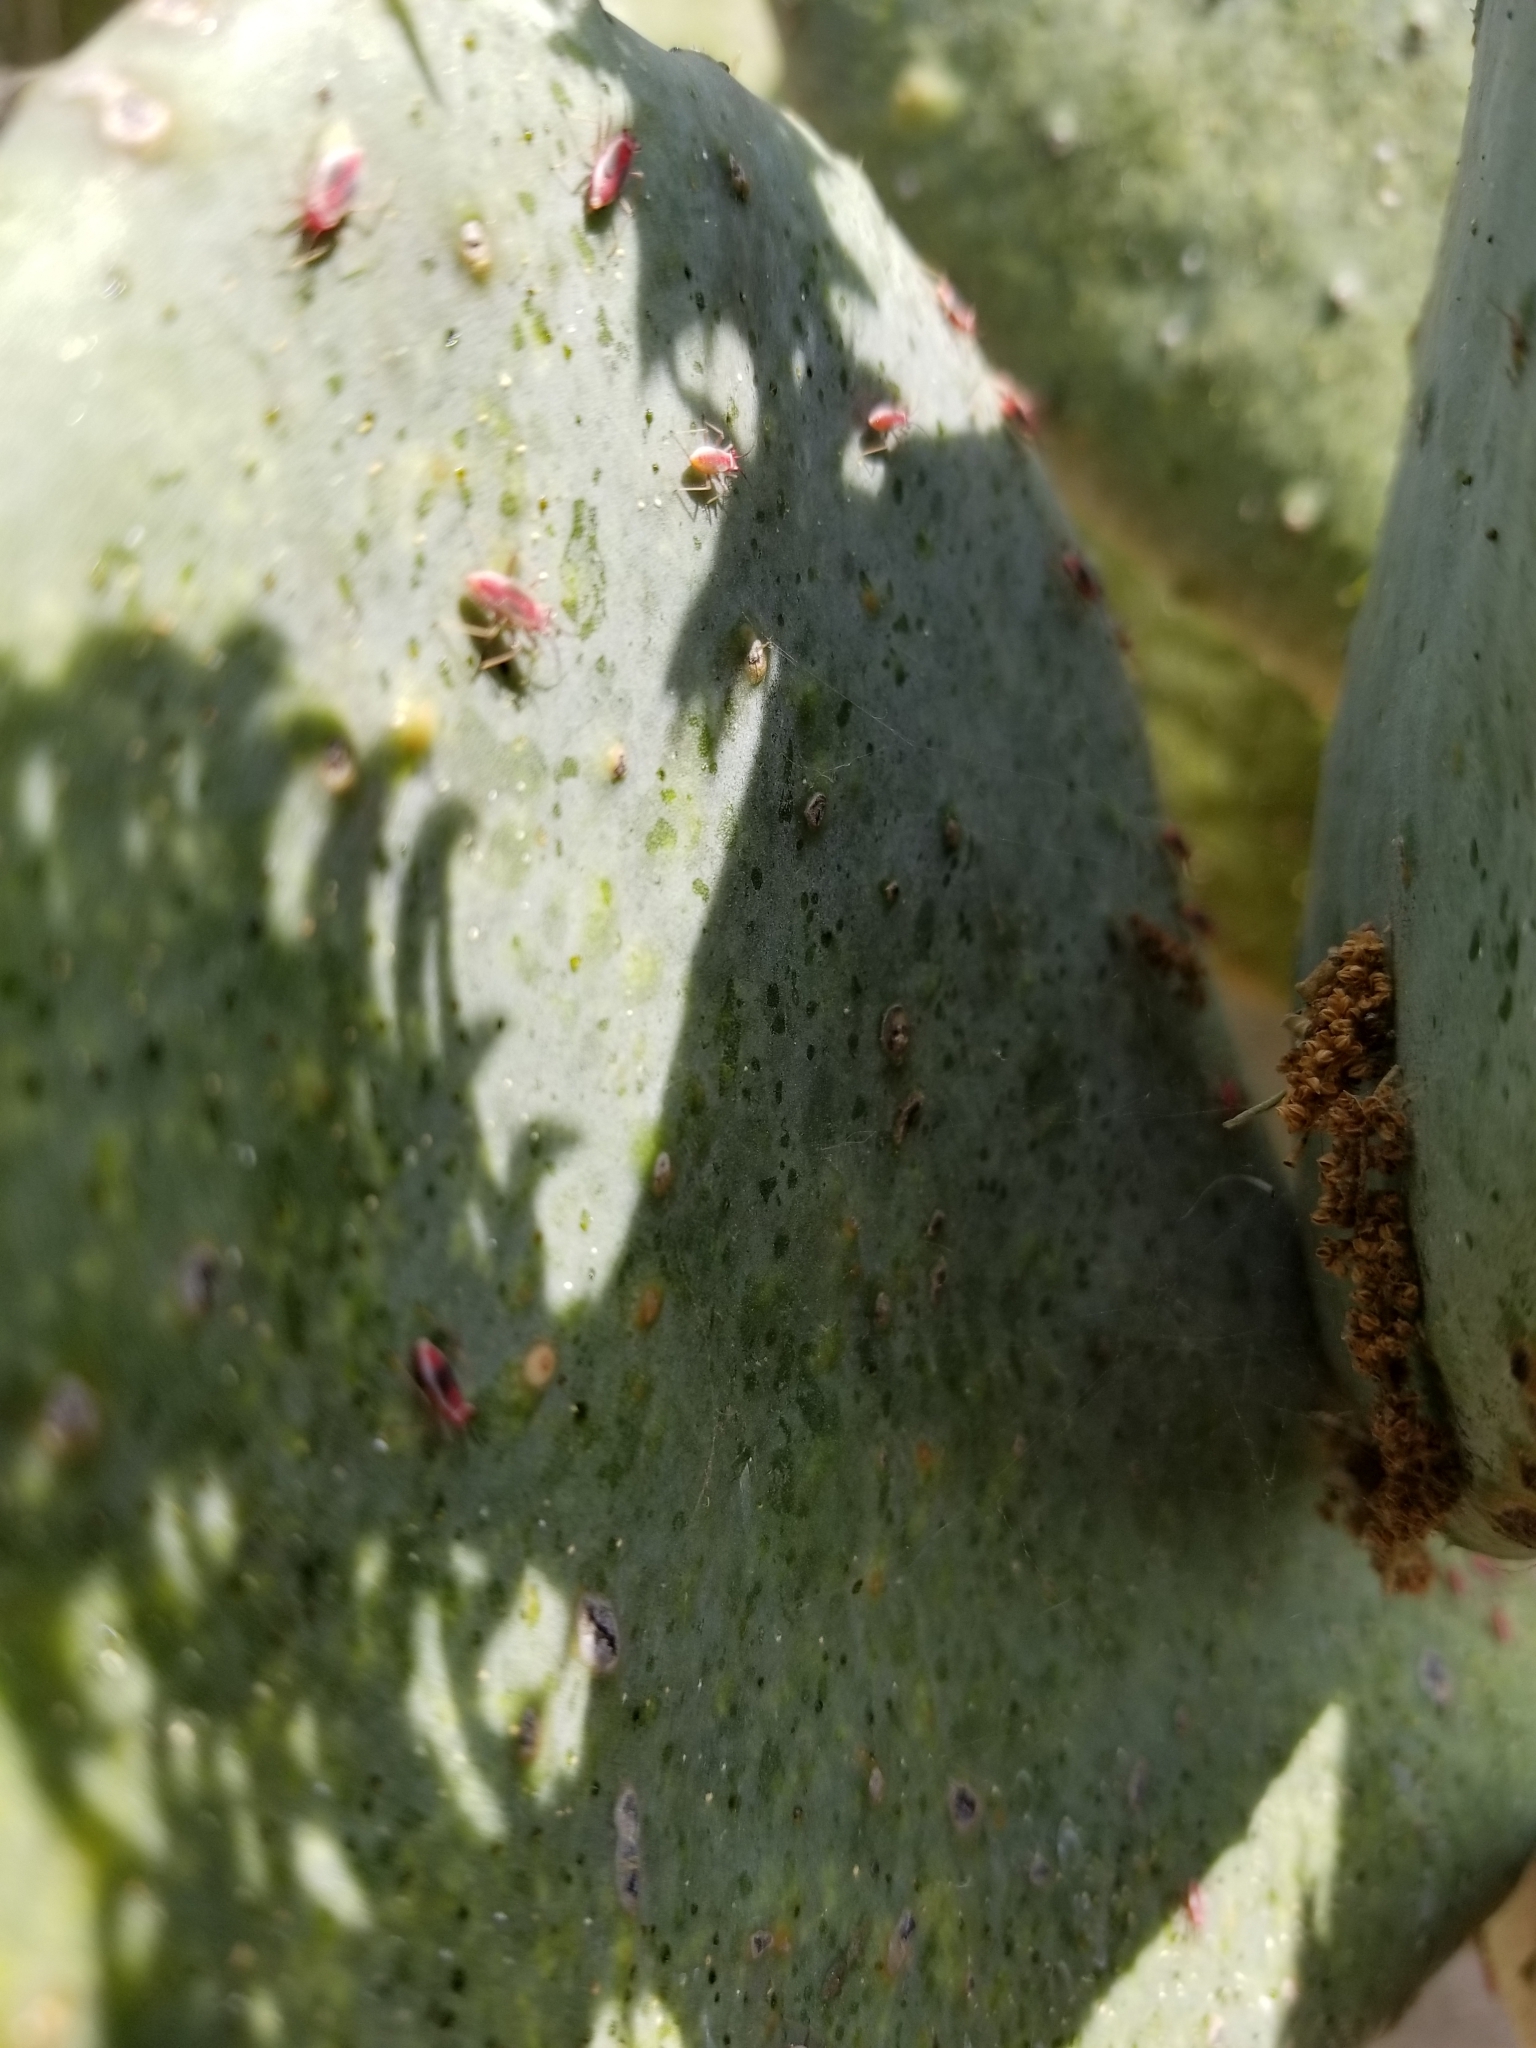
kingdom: Animalia
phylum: Arthropoda
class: Insecta
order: Hemiptera
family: Miridae
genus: Hesperolabops
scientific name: Hesperolabops gelastops
